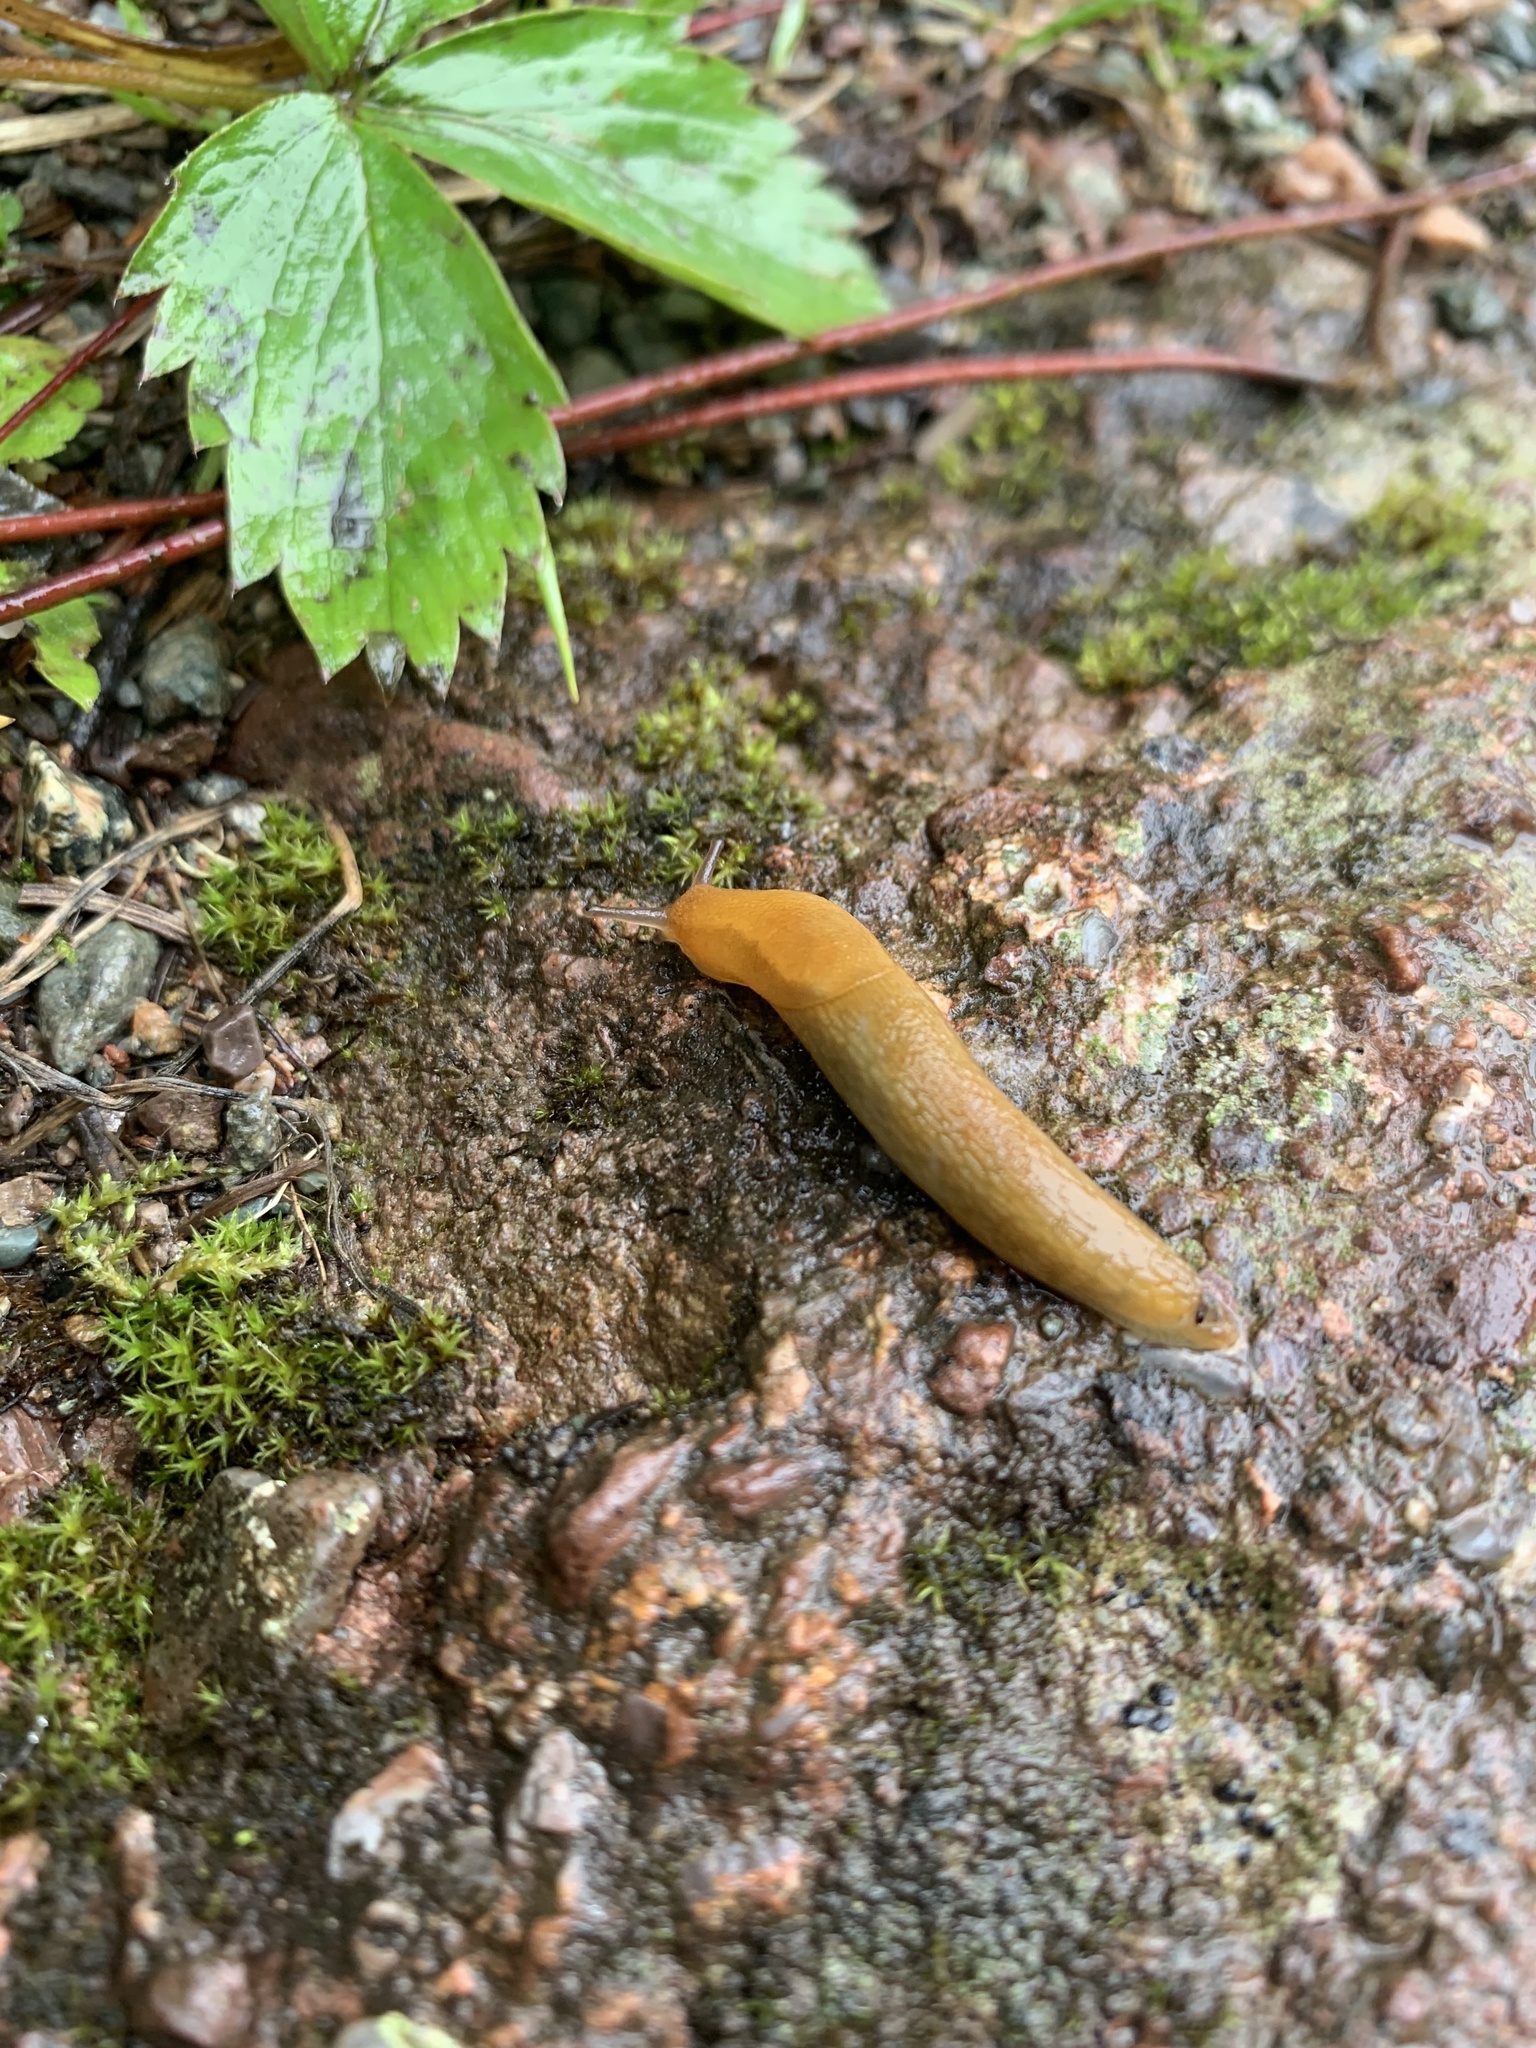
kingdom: Animalia
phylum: Mollusca
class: Gastropoda
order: Stylommatophora
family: Arionidae
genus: Arion
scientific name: Arion subfuscus
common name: Dusky arion
